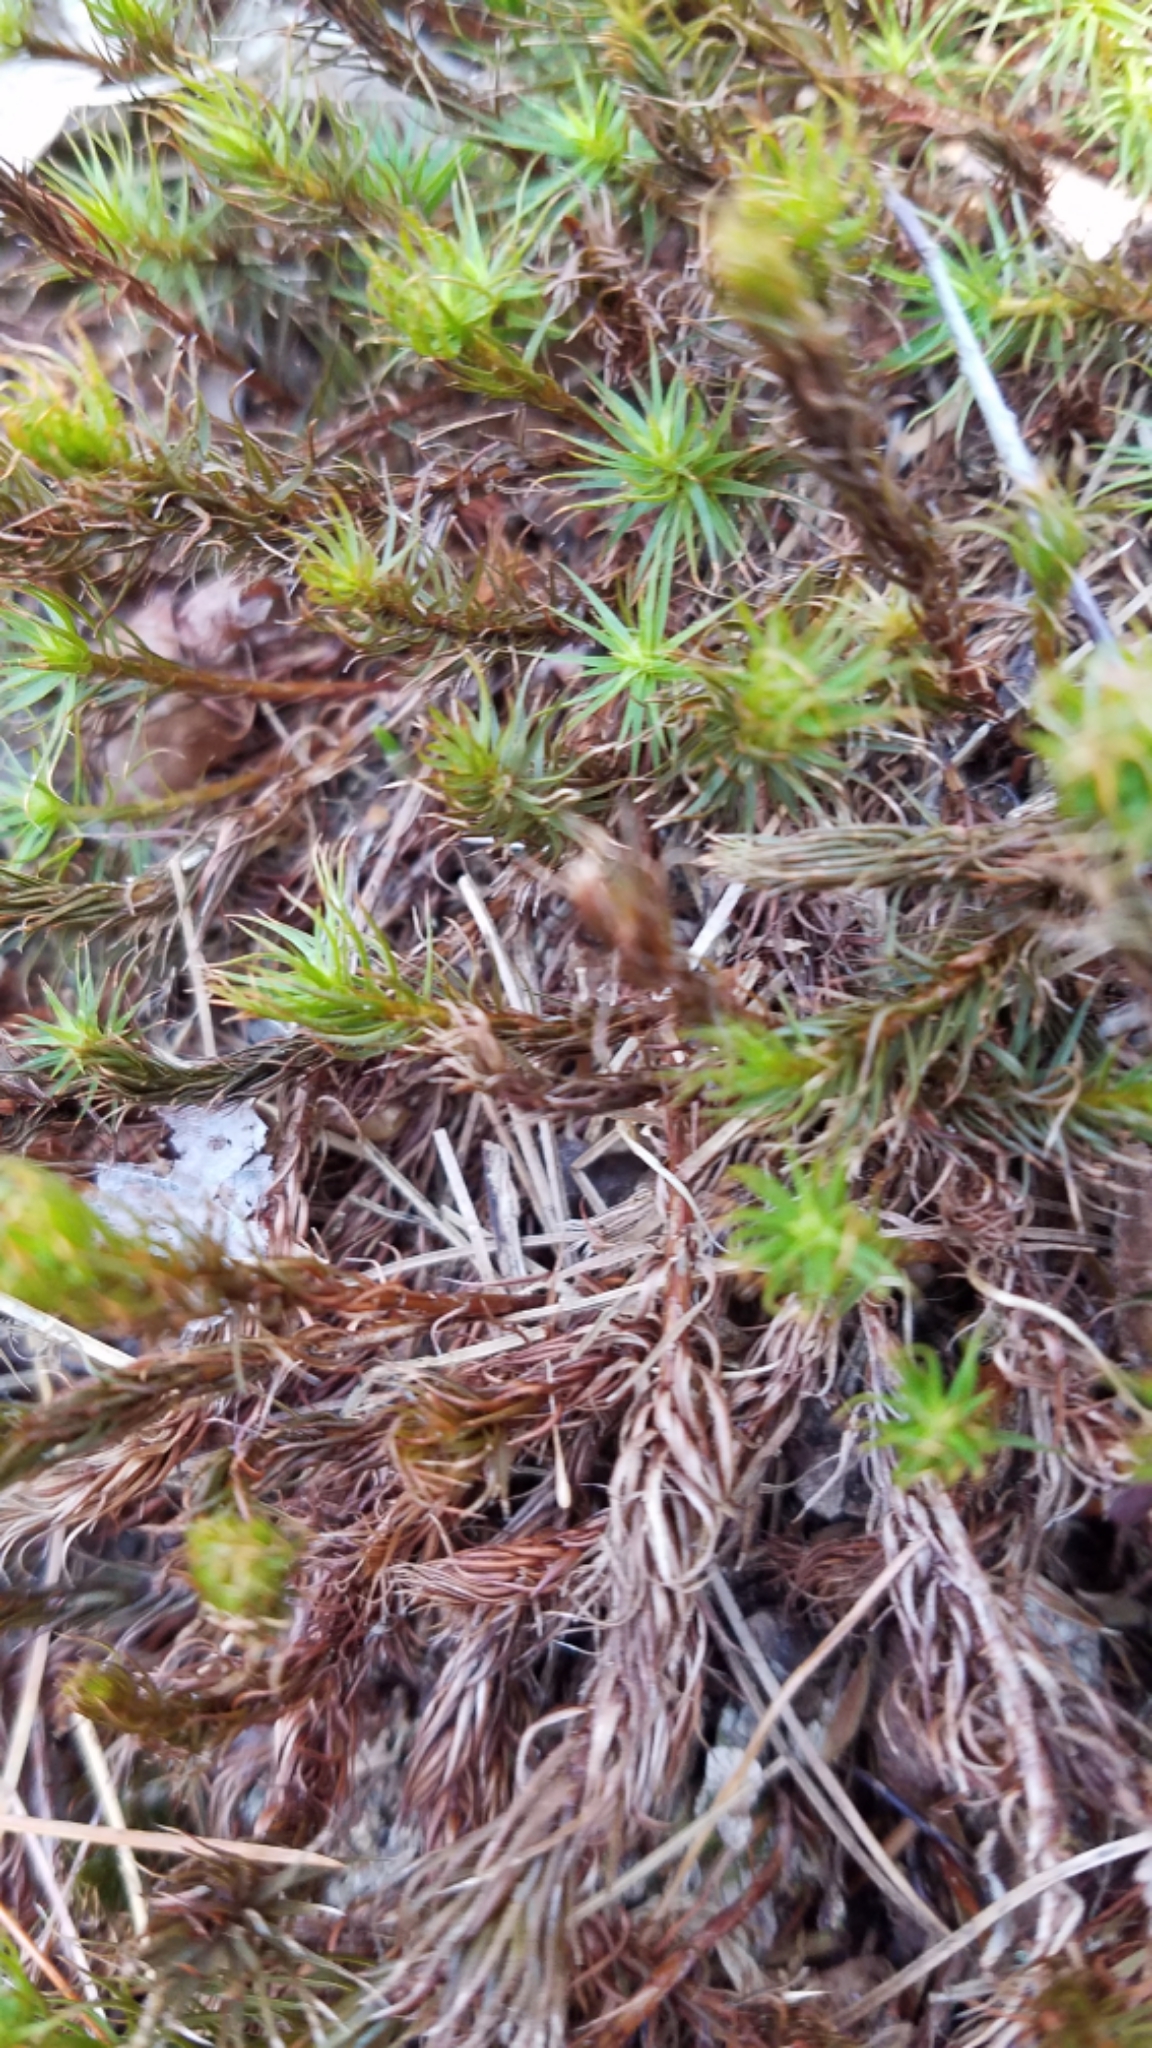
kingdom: Plantae
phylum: Bryophyta
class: Polytrichopsida
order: Polytrichales
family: Polytrichaceae
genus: Polytrichum
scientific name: Polytrichum commune
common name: Common haircap
